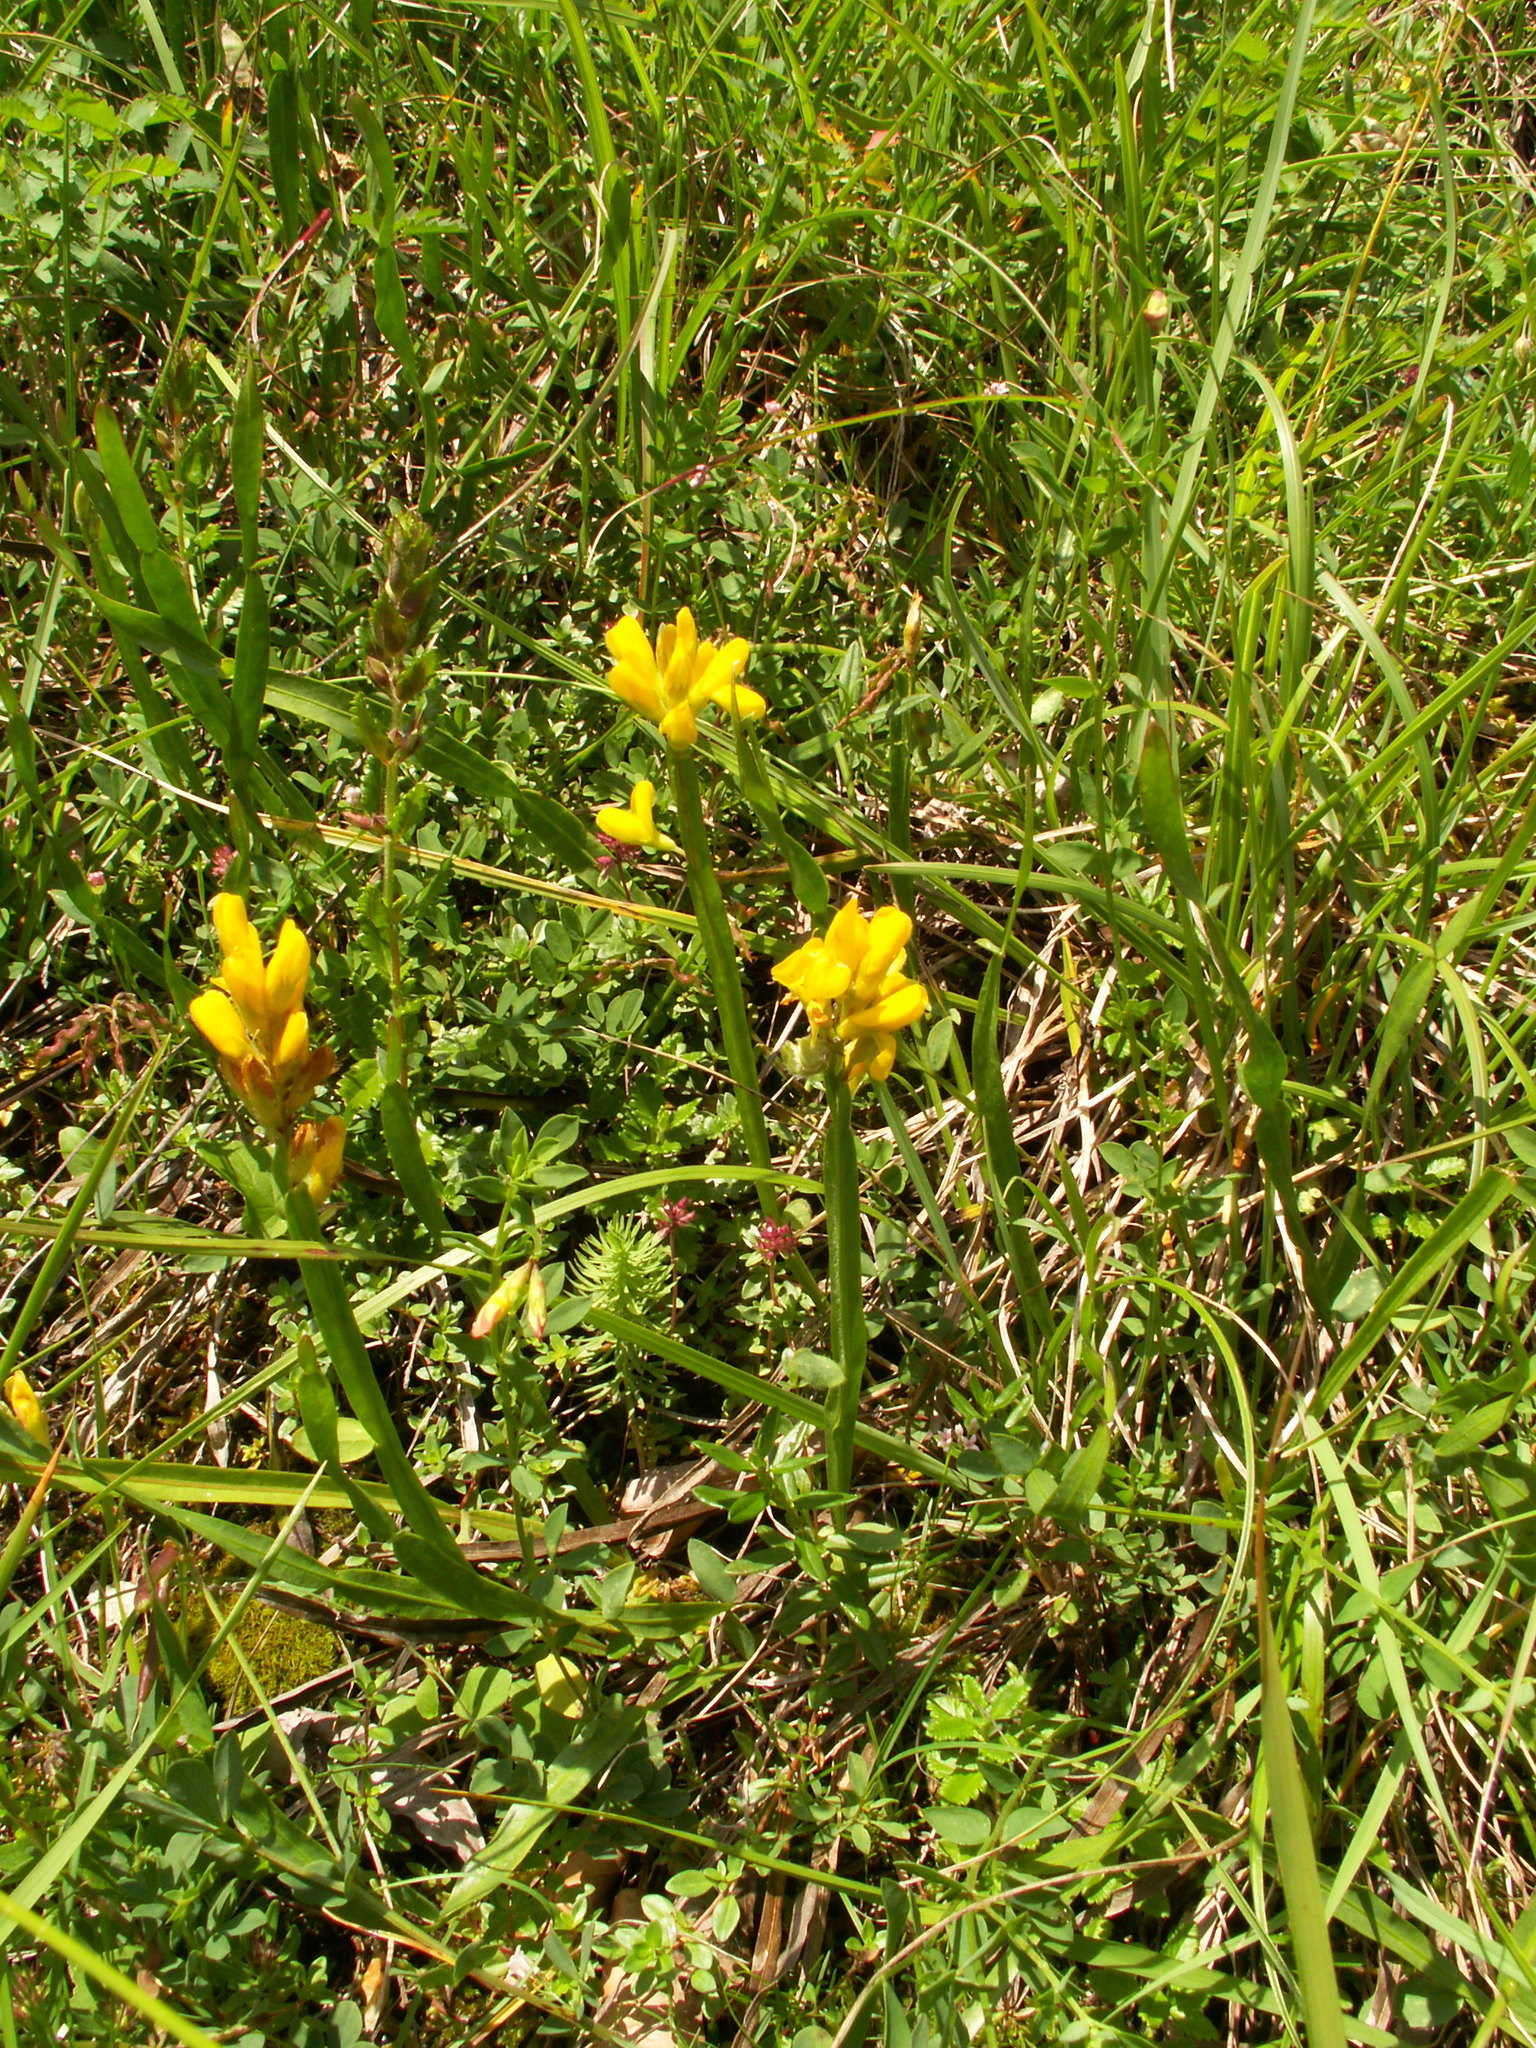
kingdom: Plantae
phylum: Tracheophyta
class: Magnoliopsida
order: Fabales
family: Fabaceae
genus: Genista
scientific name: Genista sagittalis
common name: Winged greenweed
